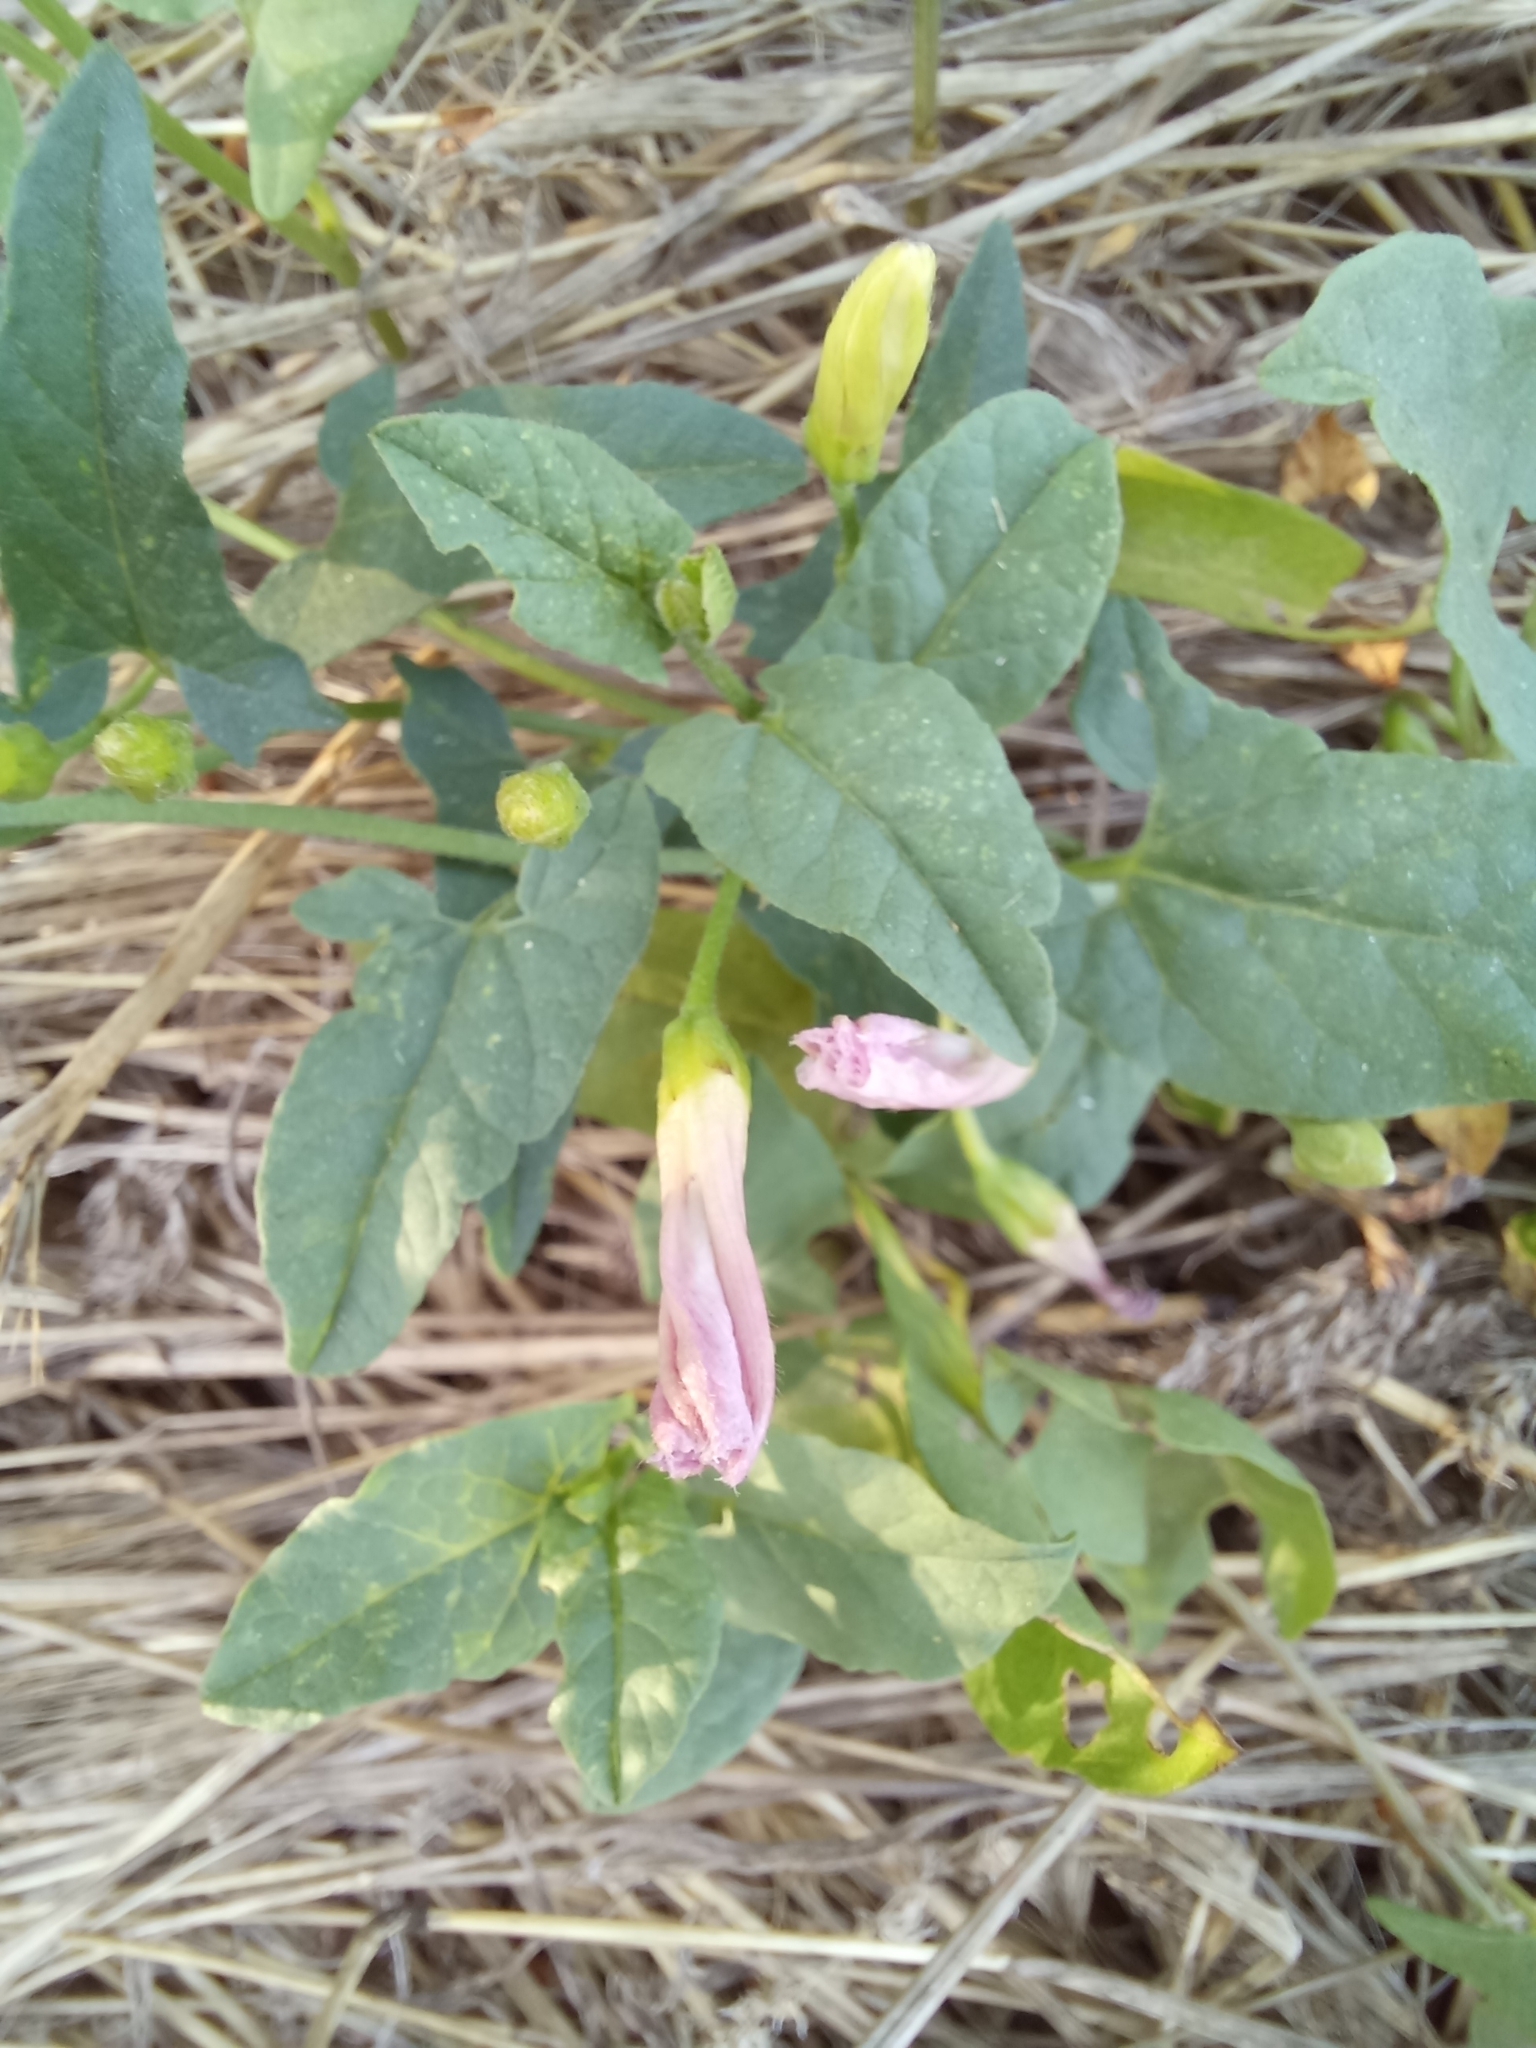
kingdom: Plantae
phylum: Tracheophyta
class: Magnoliopsida
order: Solanales
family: Convolvulaceae
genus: Convolvulus
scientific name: Convolvulus arvensis
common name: Field bindweed
